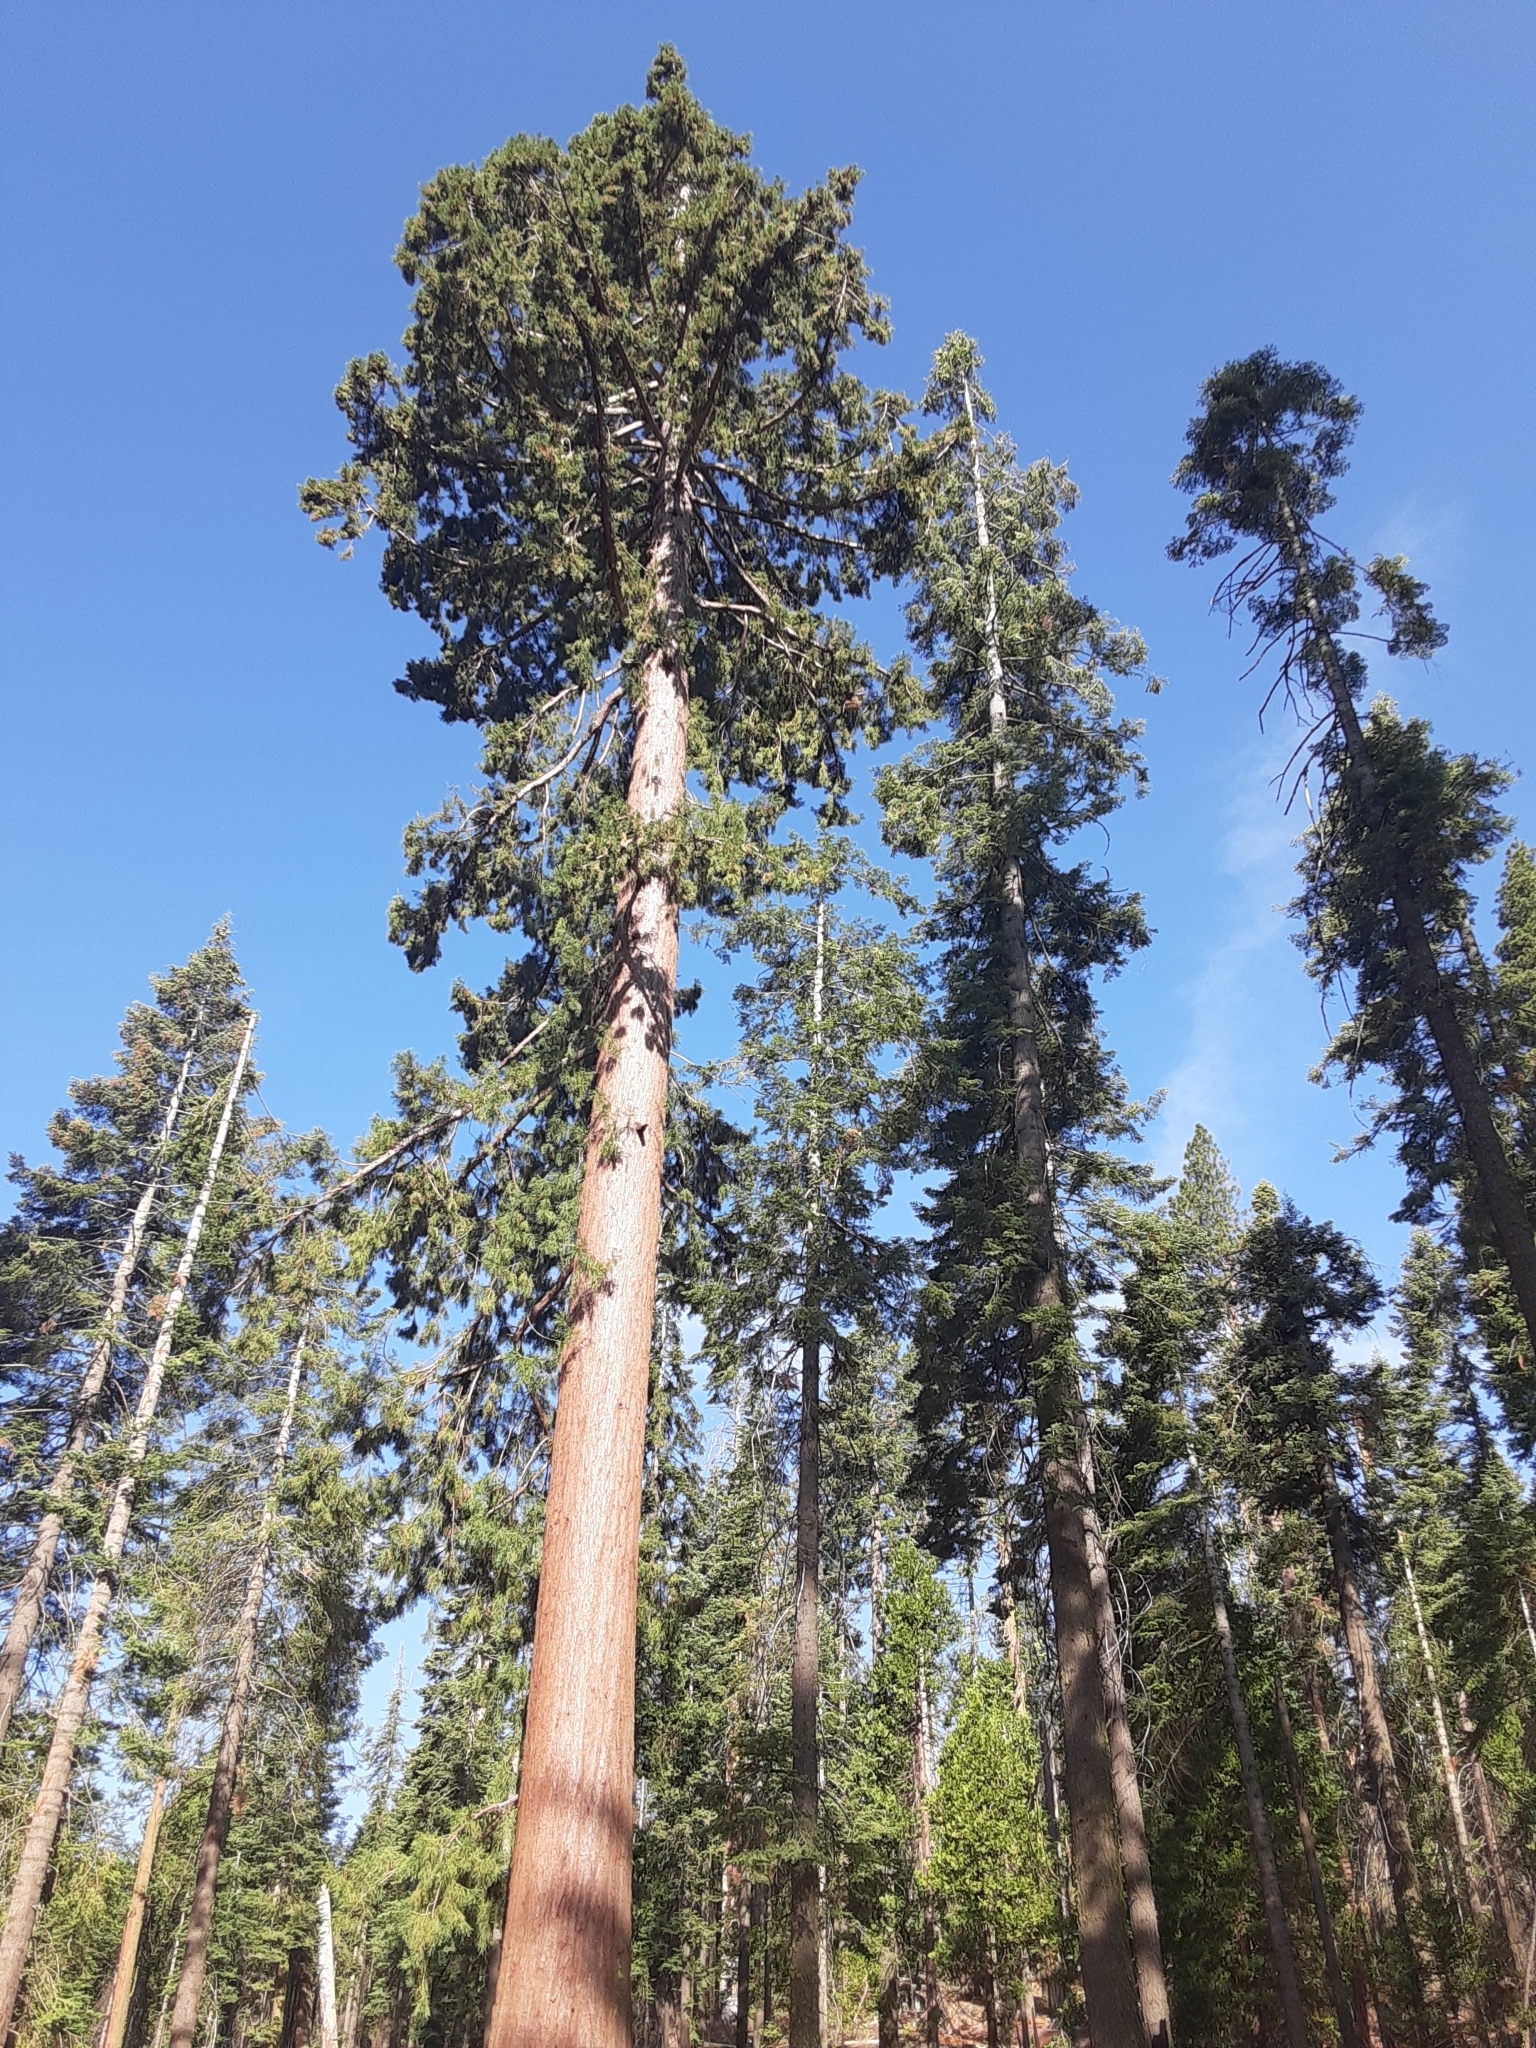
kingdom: Plantae
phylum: Tracheophyta
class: Pinopsida
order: Pinales
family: Cupressaceae
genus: Sequoiadendron
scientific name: Sequoiadendron giganteum
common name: Wellingtonia
